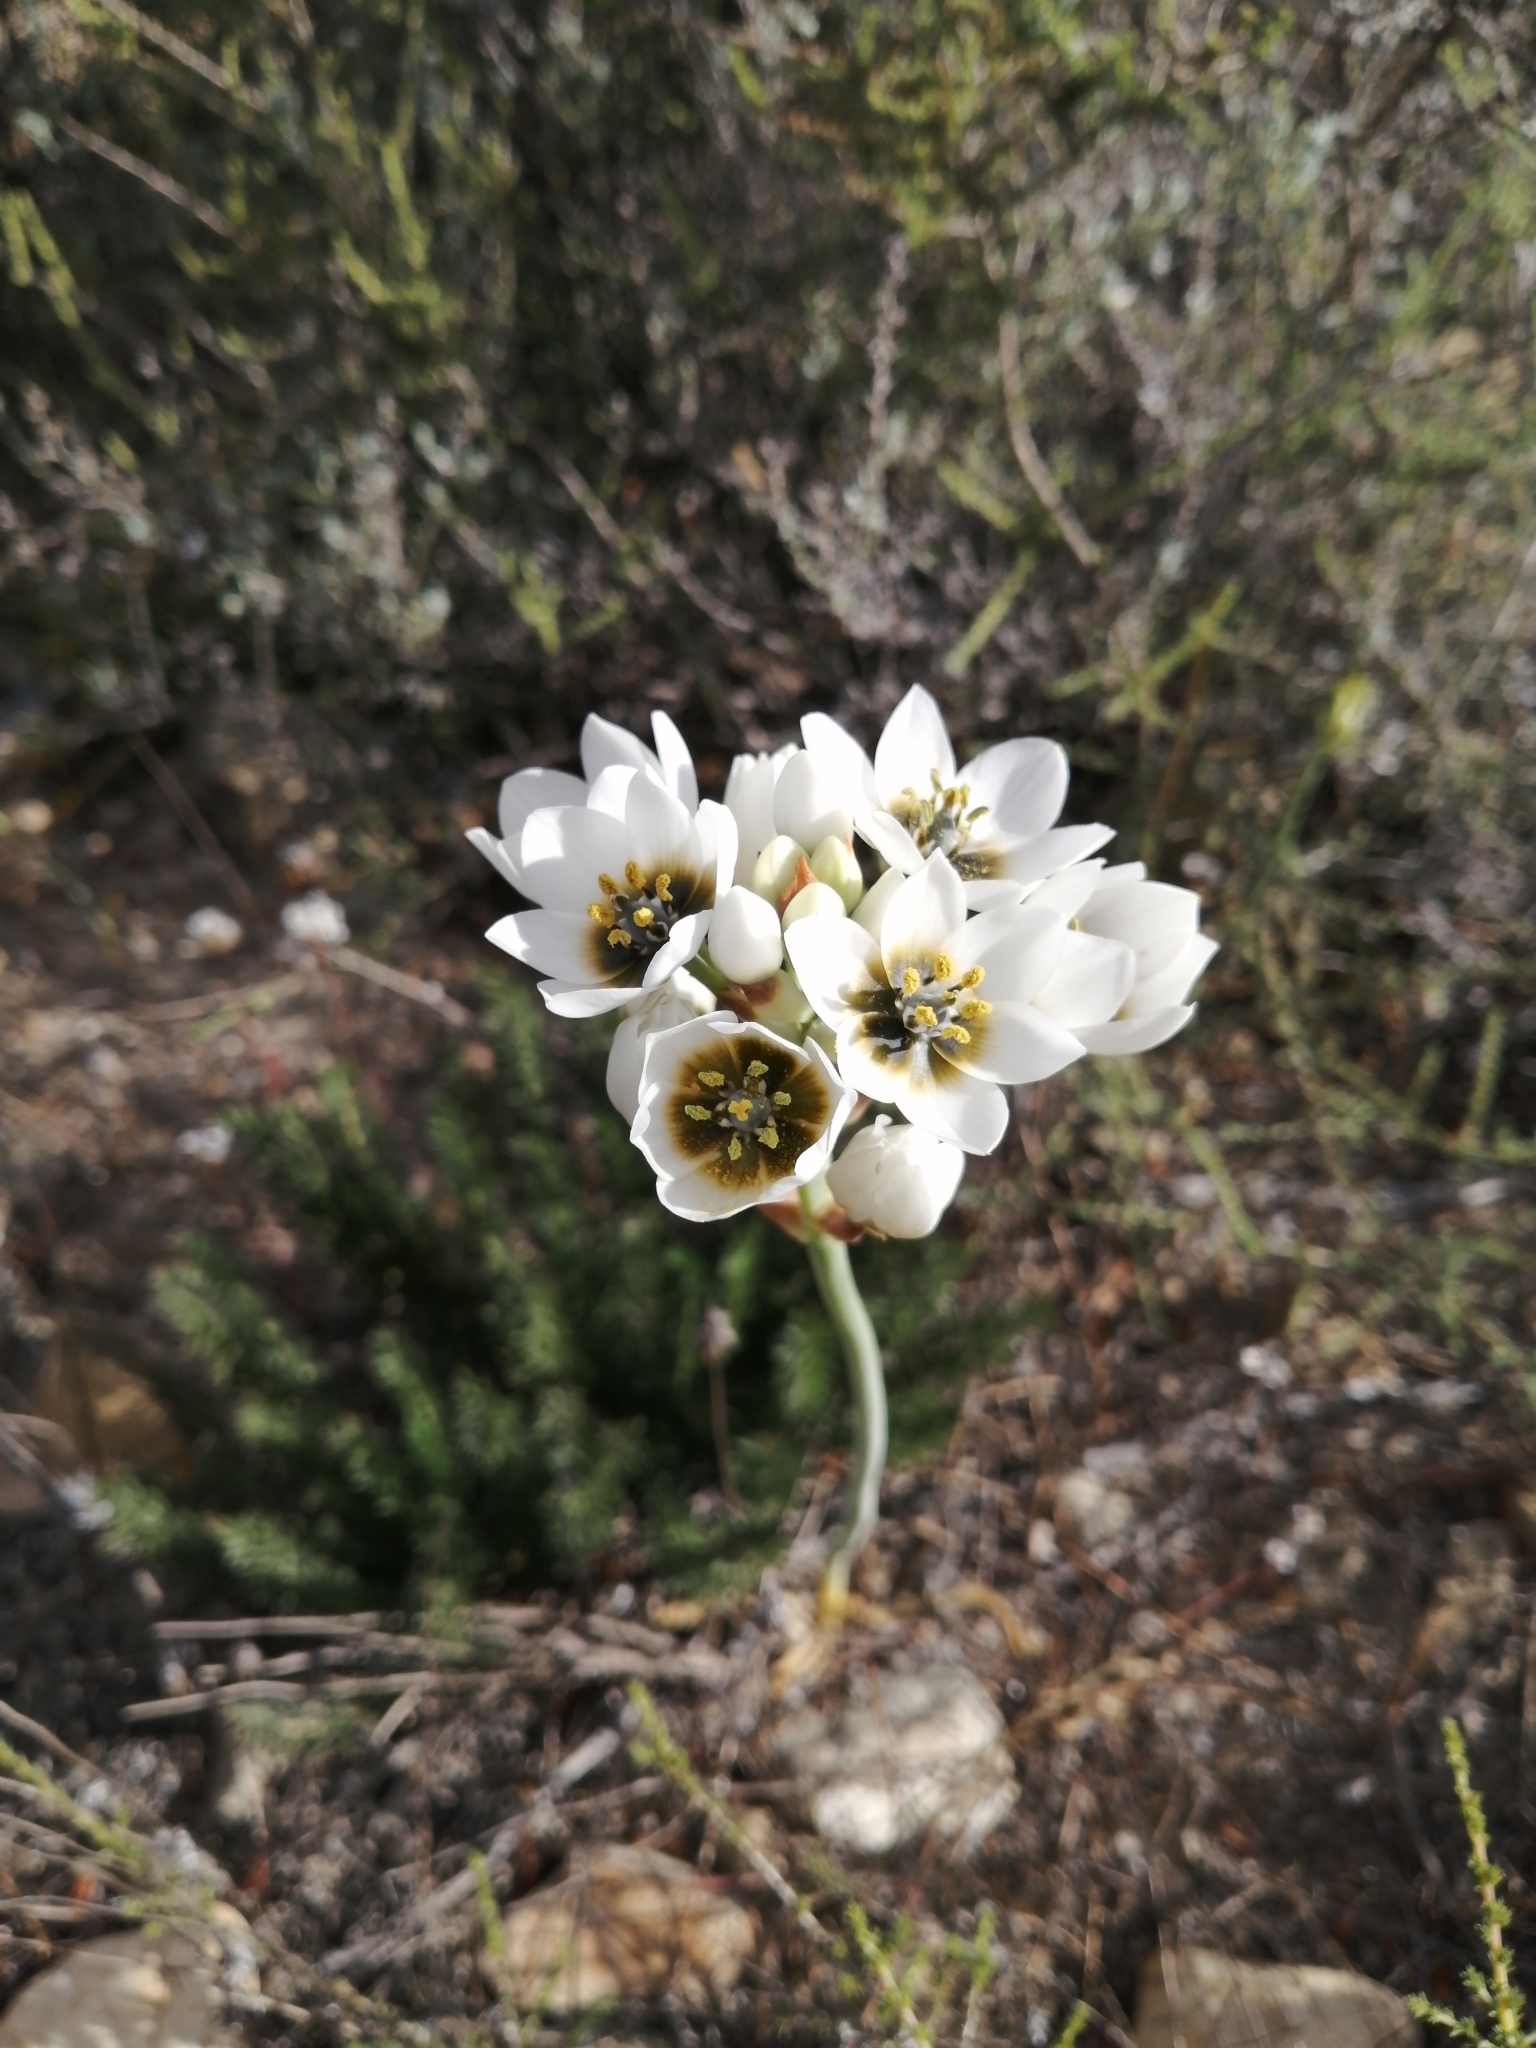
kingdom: Plantae
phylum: Tracheophyta
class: Liliopsida
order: Asparagales
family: Asparagaceae
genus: Ornithogalum
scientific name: Ornithogalum thyrsoides
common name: Chincherinchee
